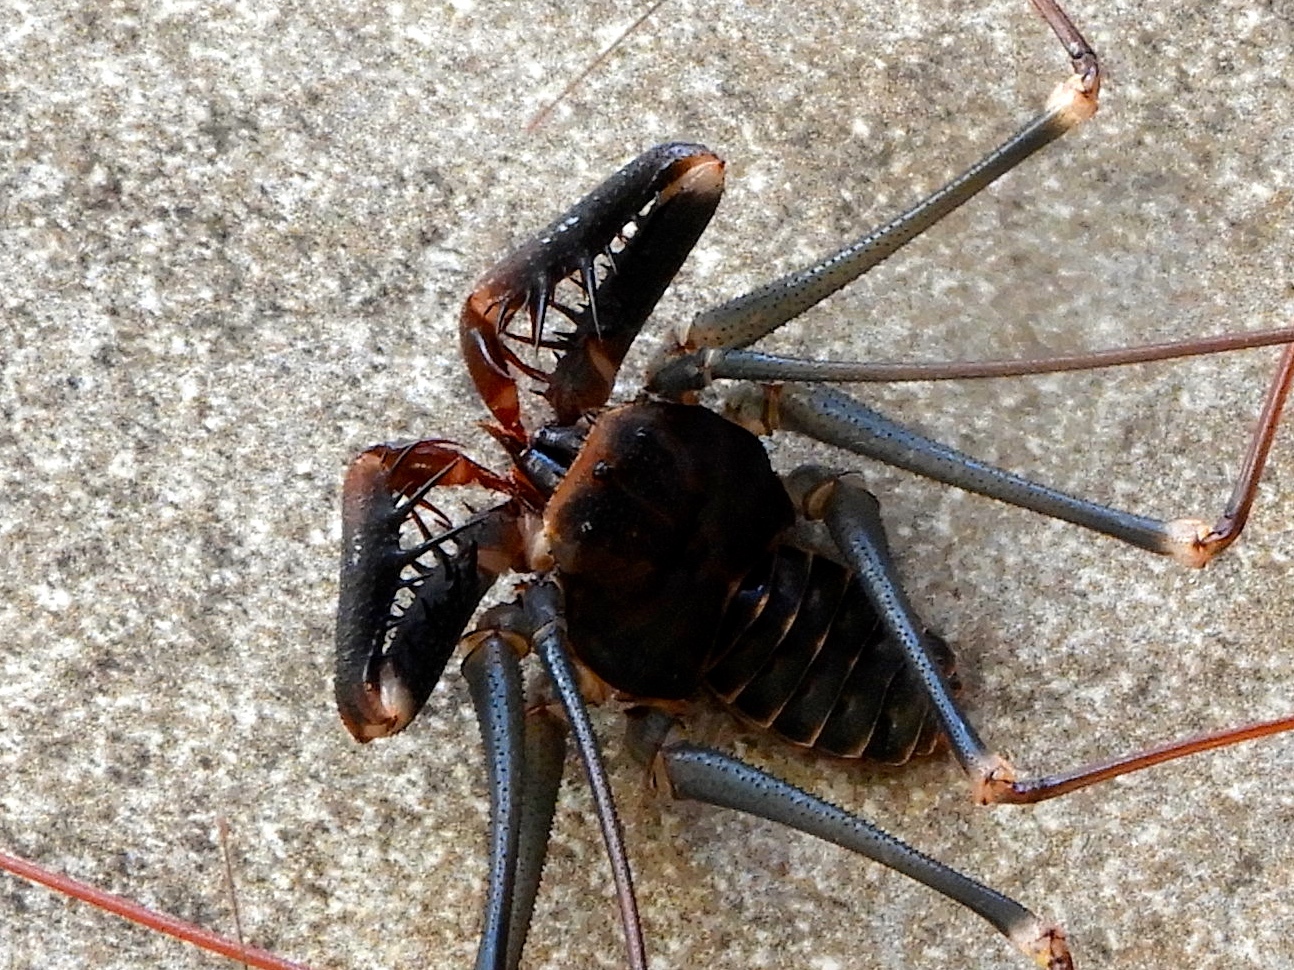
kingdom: Animalia
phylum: Arthropoda
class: Arachnida
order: Amblypygi
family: Phrynidae
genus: Acanthophrynus
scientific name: Acanthophrynus coronatus
